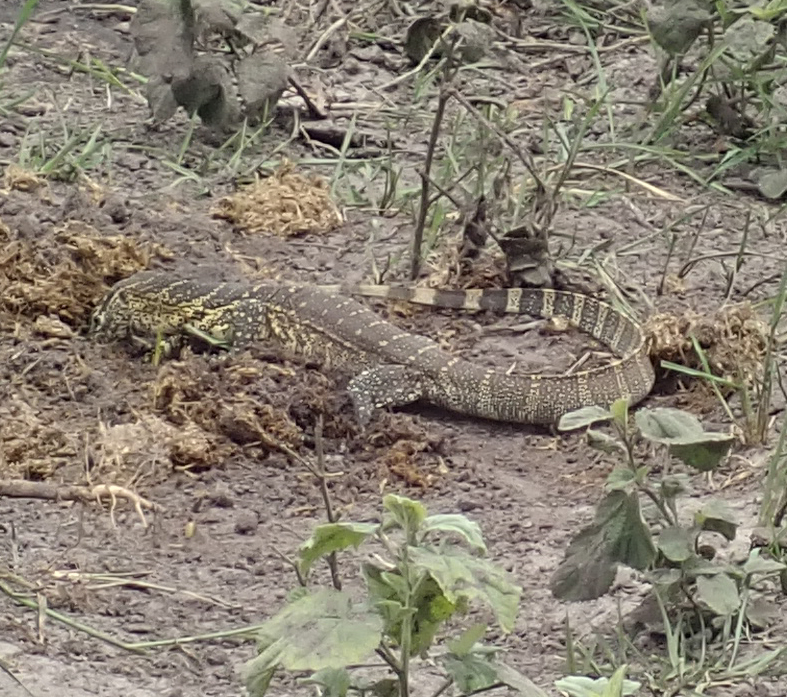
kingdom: Animalia
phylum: Chordata
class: Squamata
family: Varanidae
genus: Varanus
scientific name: Varanus niloticus
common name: Nile monitor
